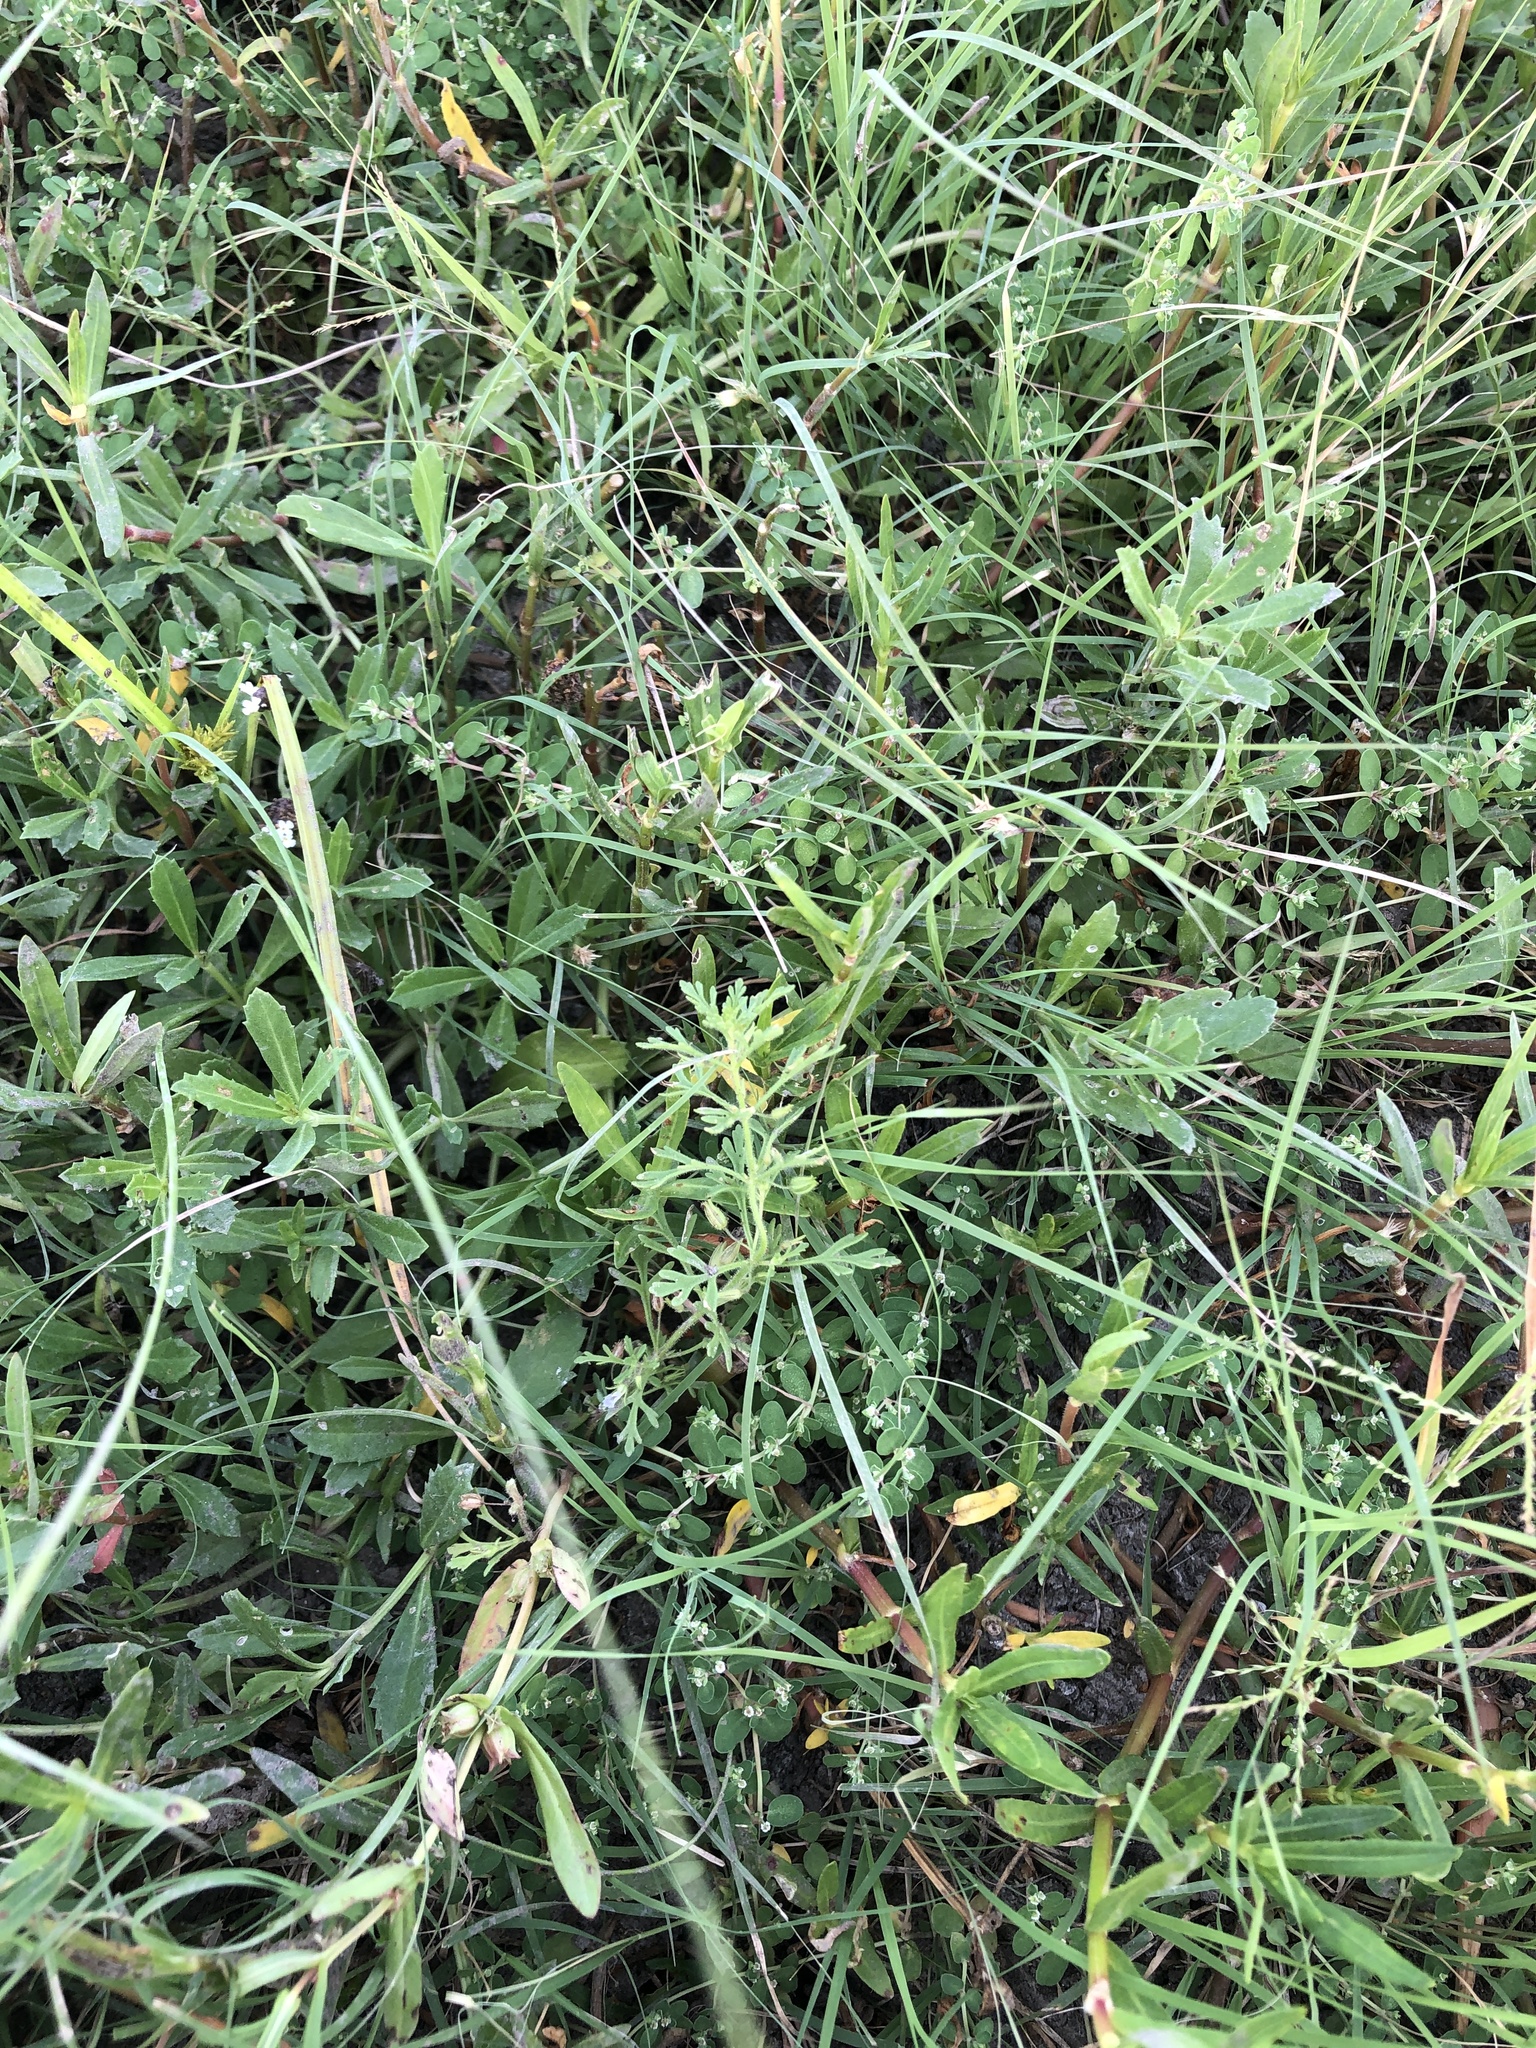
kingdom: Plantae
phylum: Tracheophyta
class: Magnoliopsida
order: Lamiales
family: Plantaginaceae
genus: Leucospora
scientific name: Leucospora multifida
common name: Narrow-leaf paleseed
